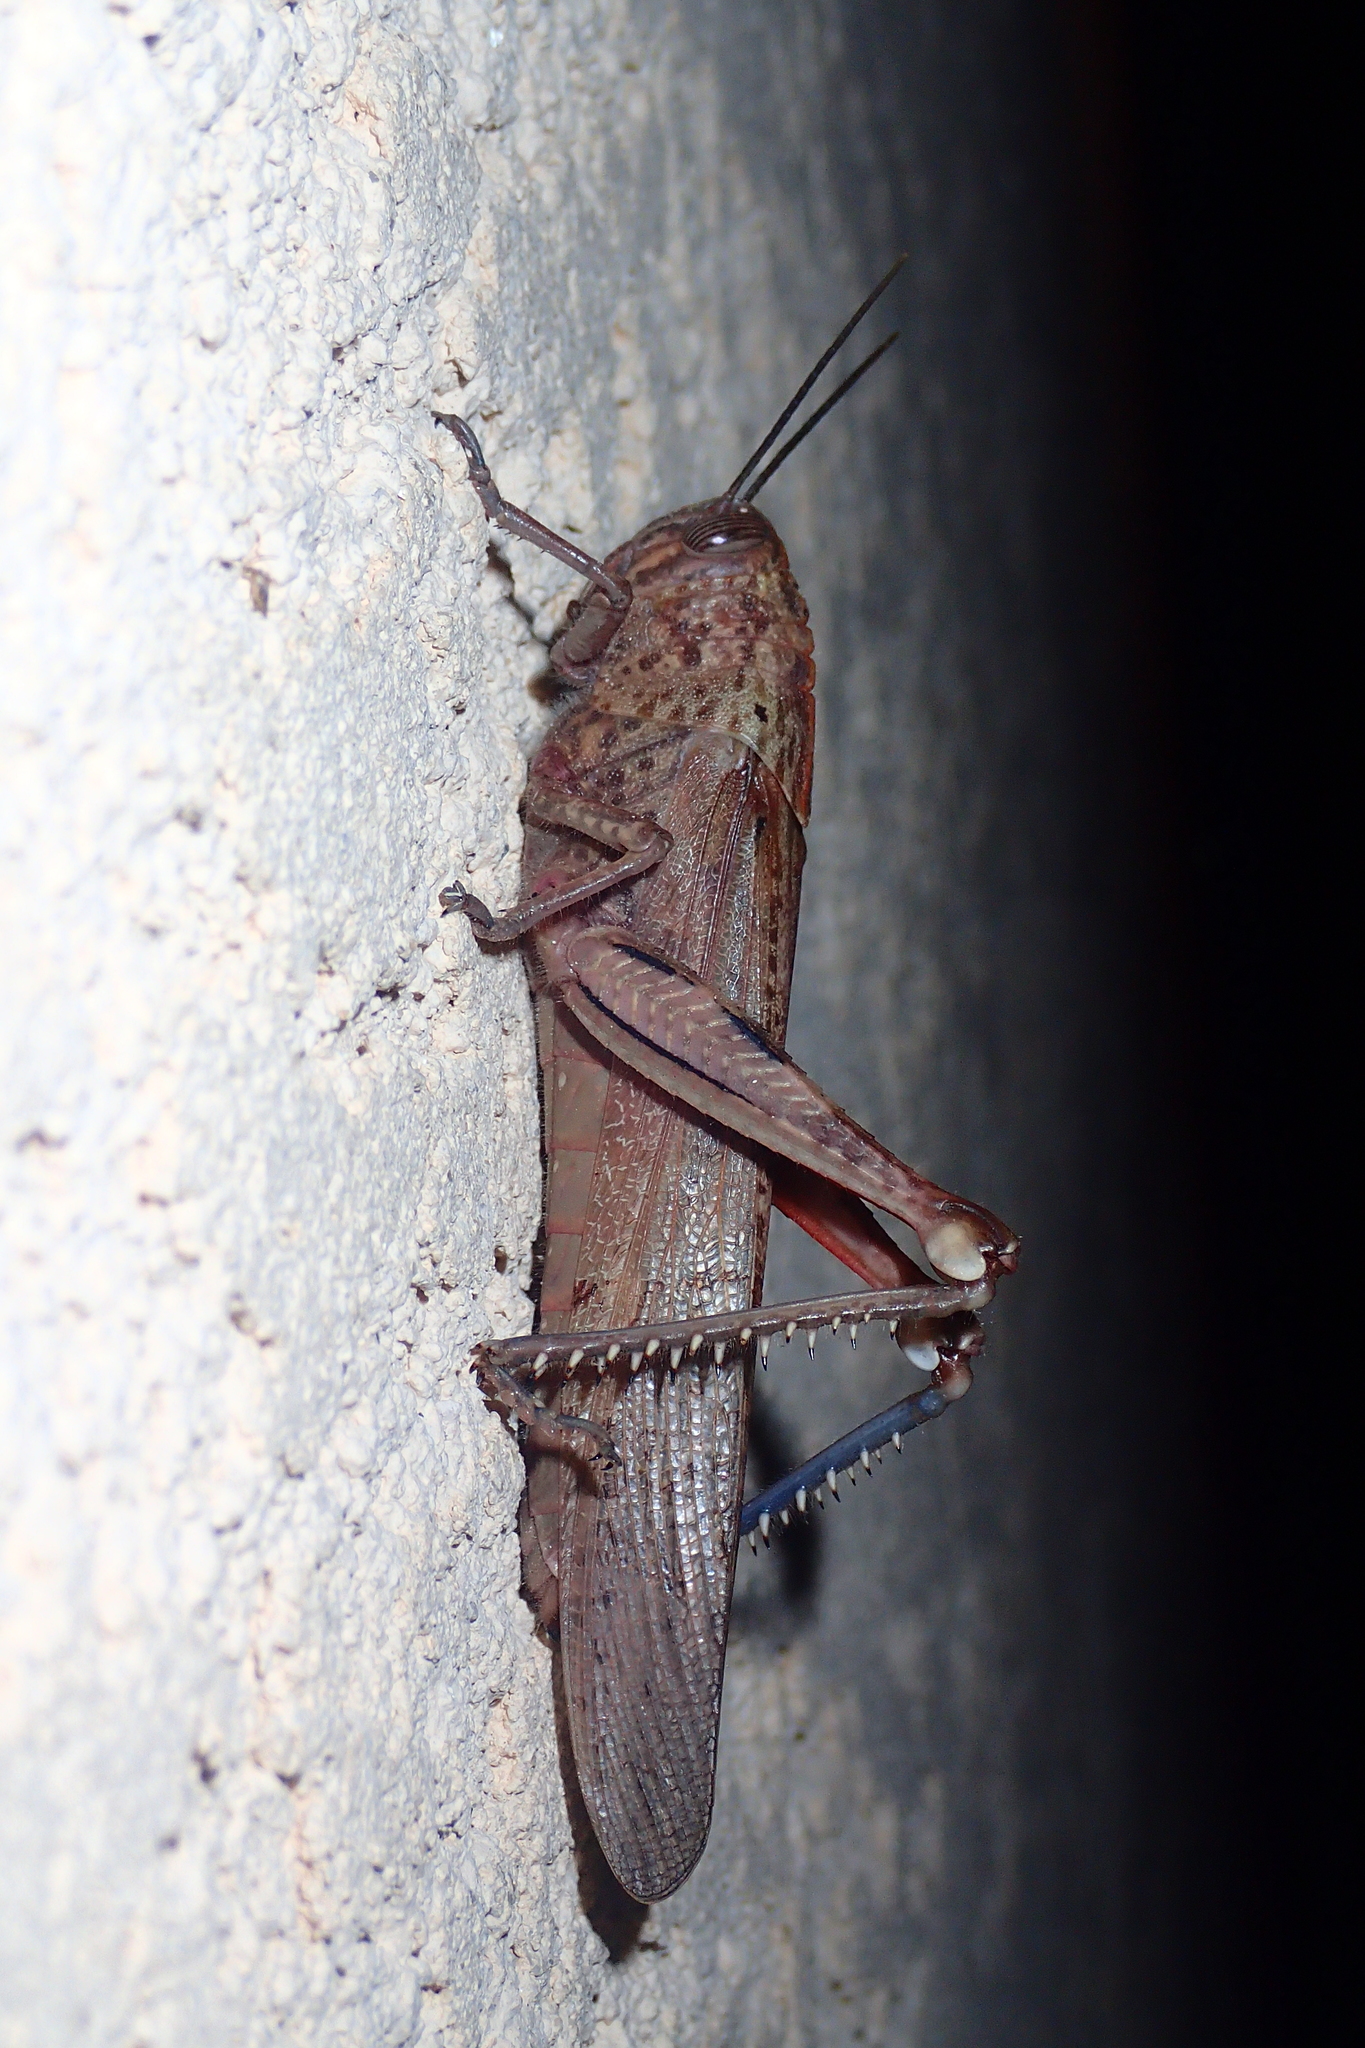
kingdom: Animalia
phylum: Arthropoda
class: Insecta
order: Orthoptera
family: Acrididae
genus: Anacridium
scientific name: Anacridium aegyptium
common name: Egyptian grasshopper
